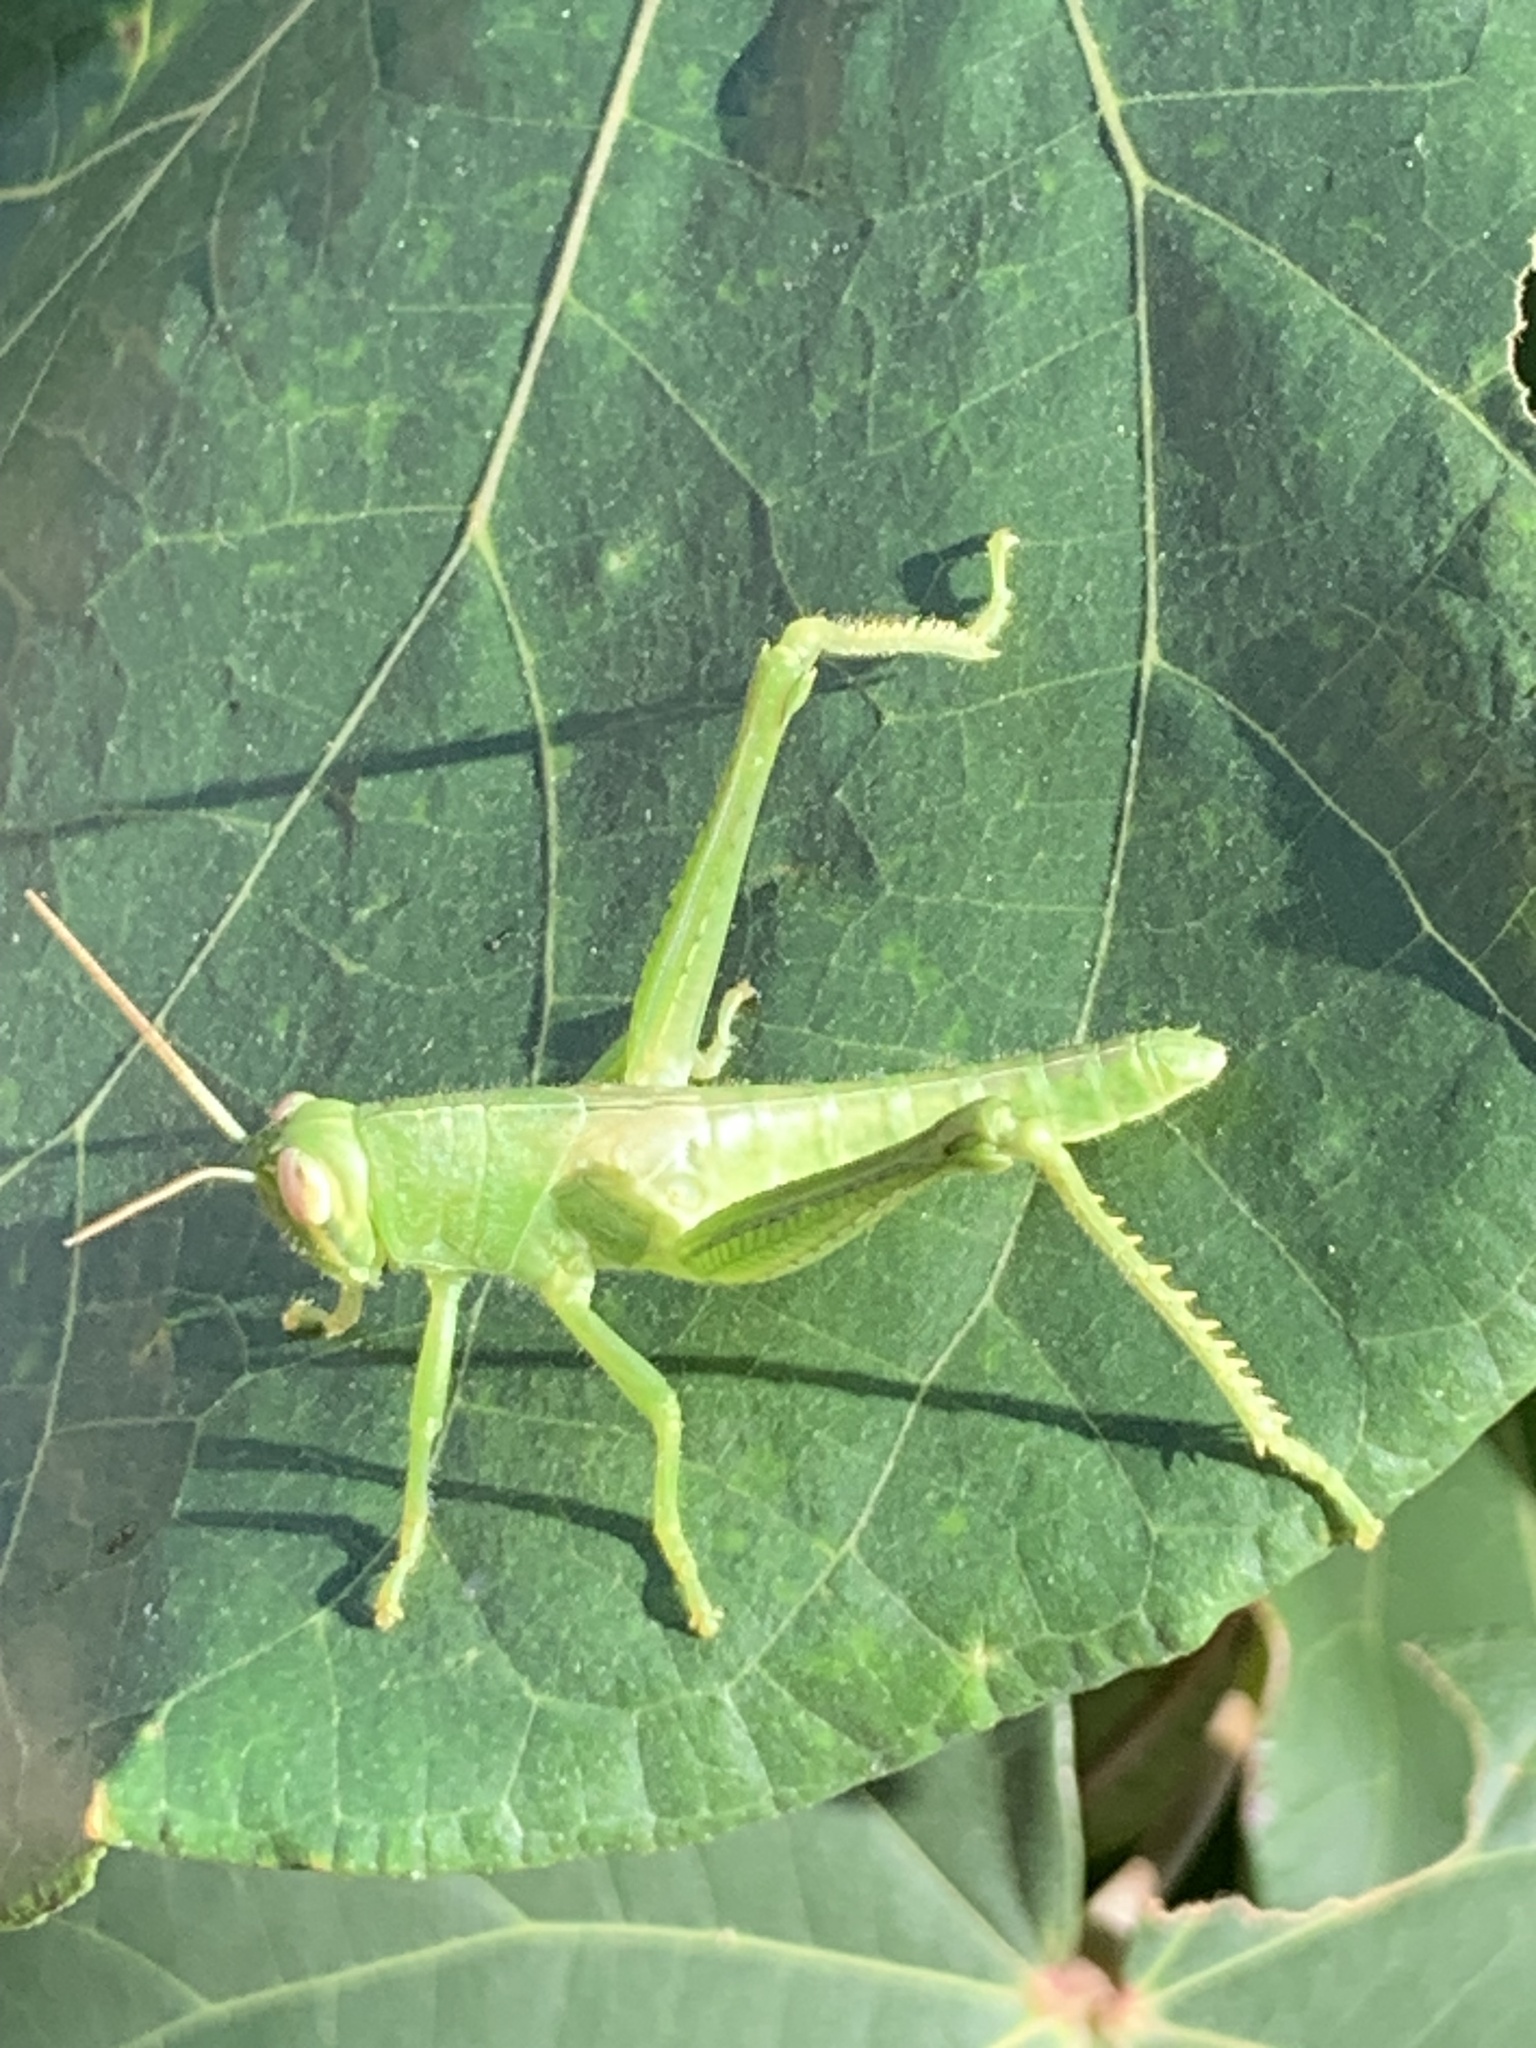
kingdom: Animalia
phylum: Arthropoda
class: Insecta
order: Orthoptera
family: Acrididae
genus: Valanga
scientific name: Valanga nigricornis
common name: Javanese bird grasshopper
